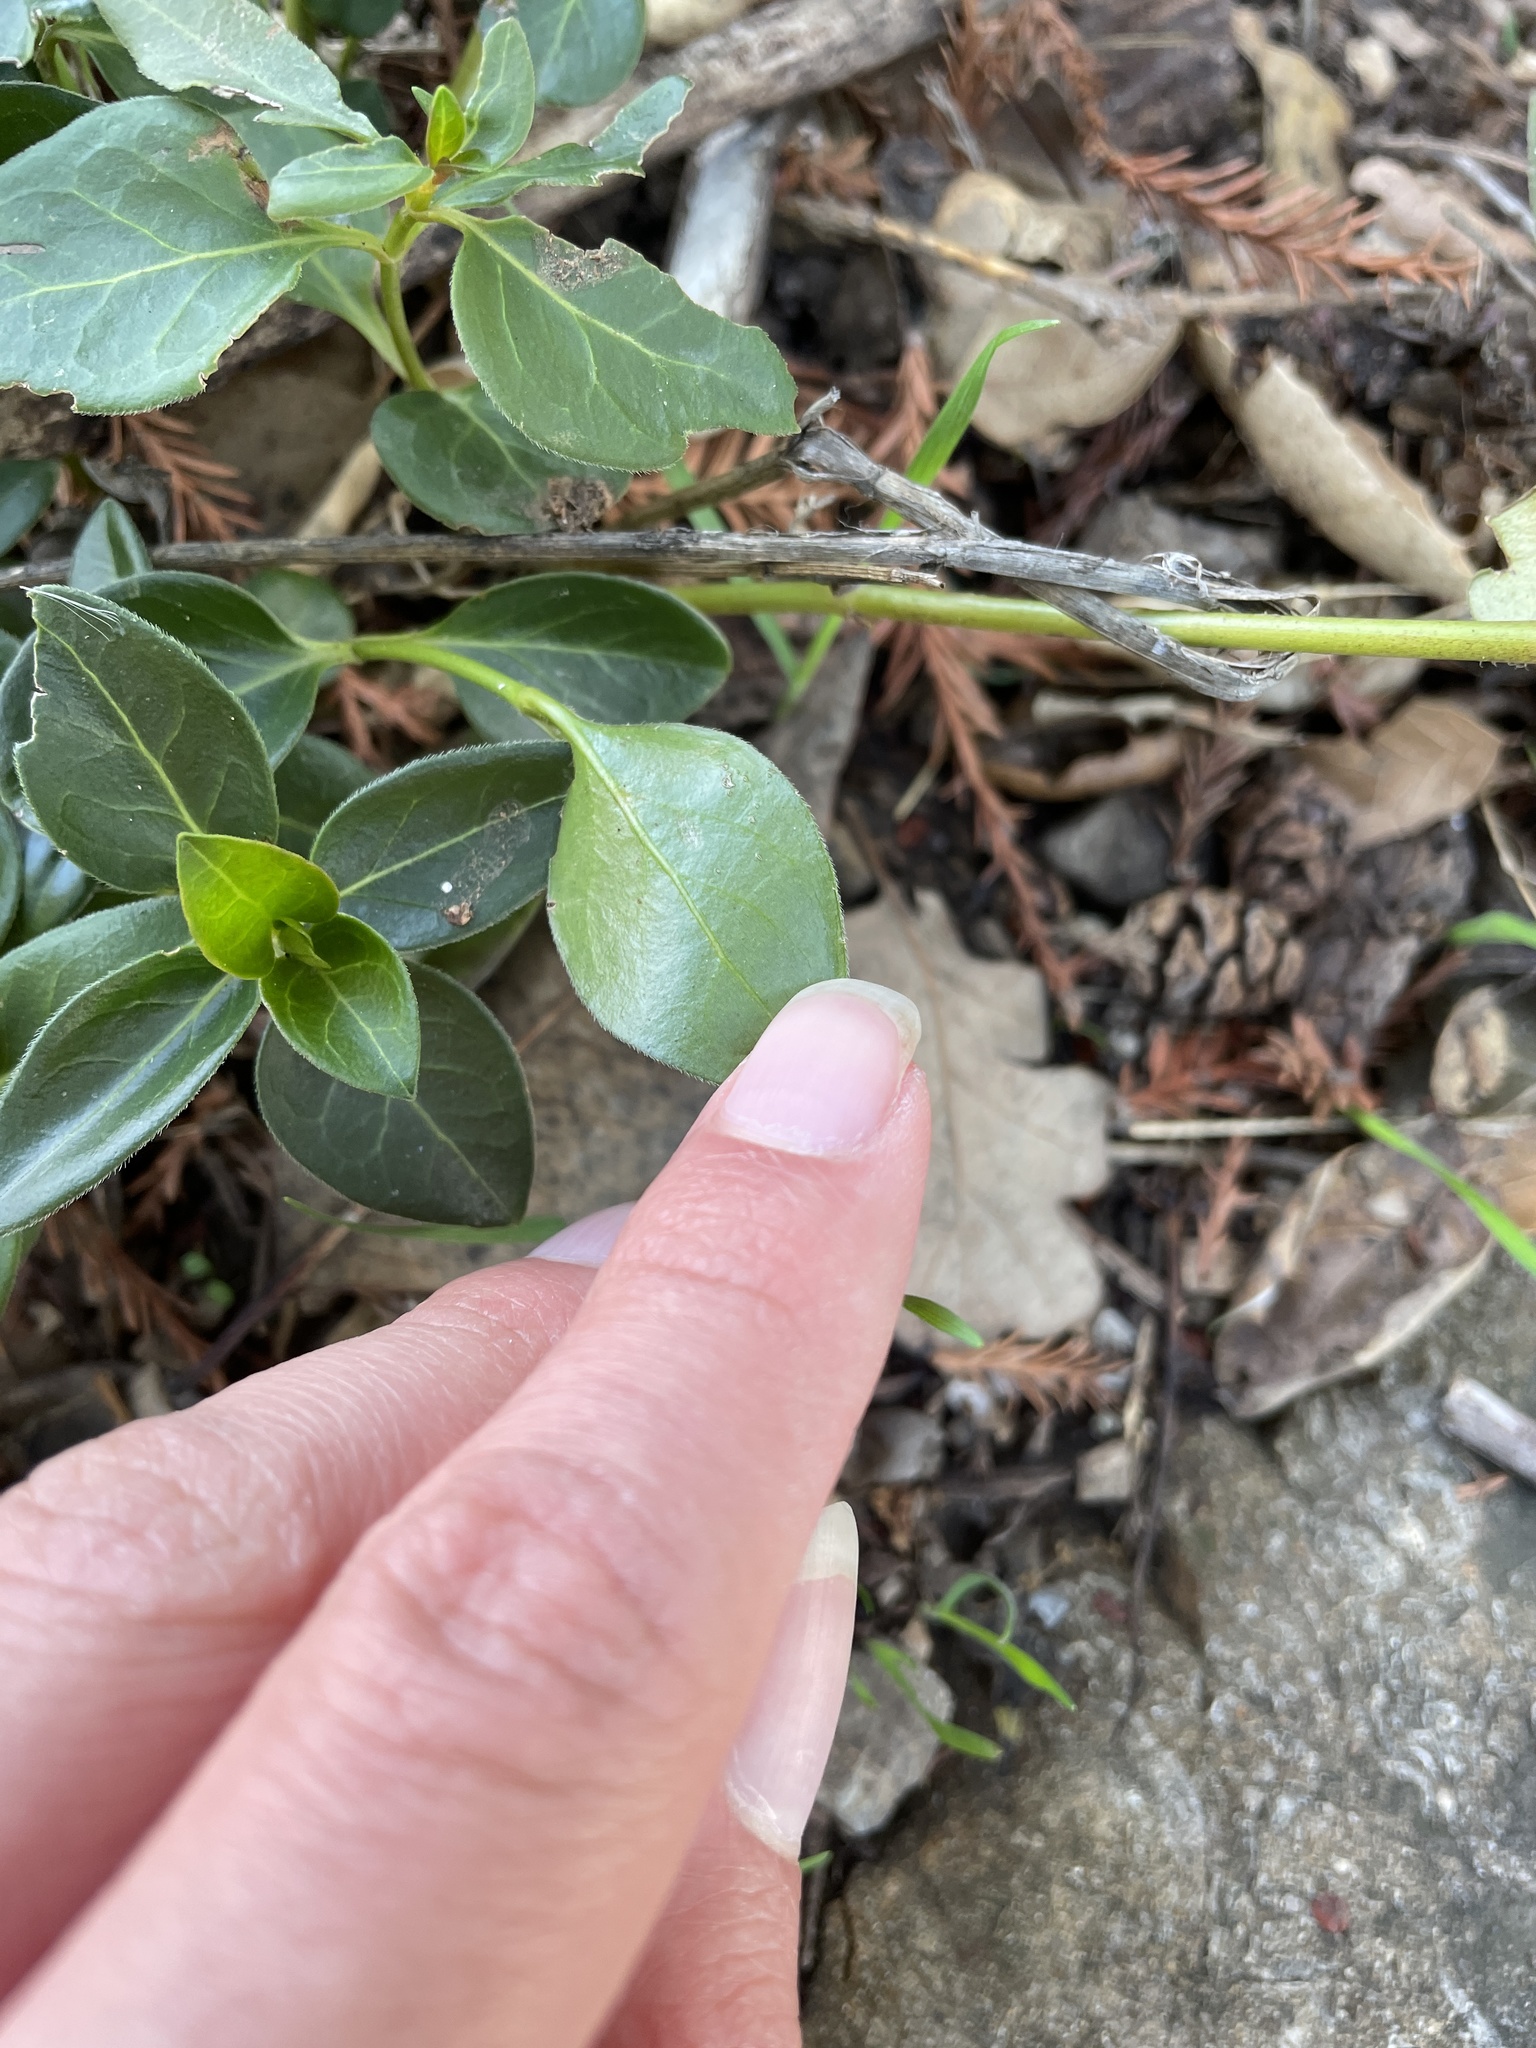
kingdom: Plantae
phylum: Tracheophyta
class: Magnoliopsida
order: Gentianales
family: Apocynaceae
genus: Vinca
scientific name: Vinca major
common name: Greater periwinkle
